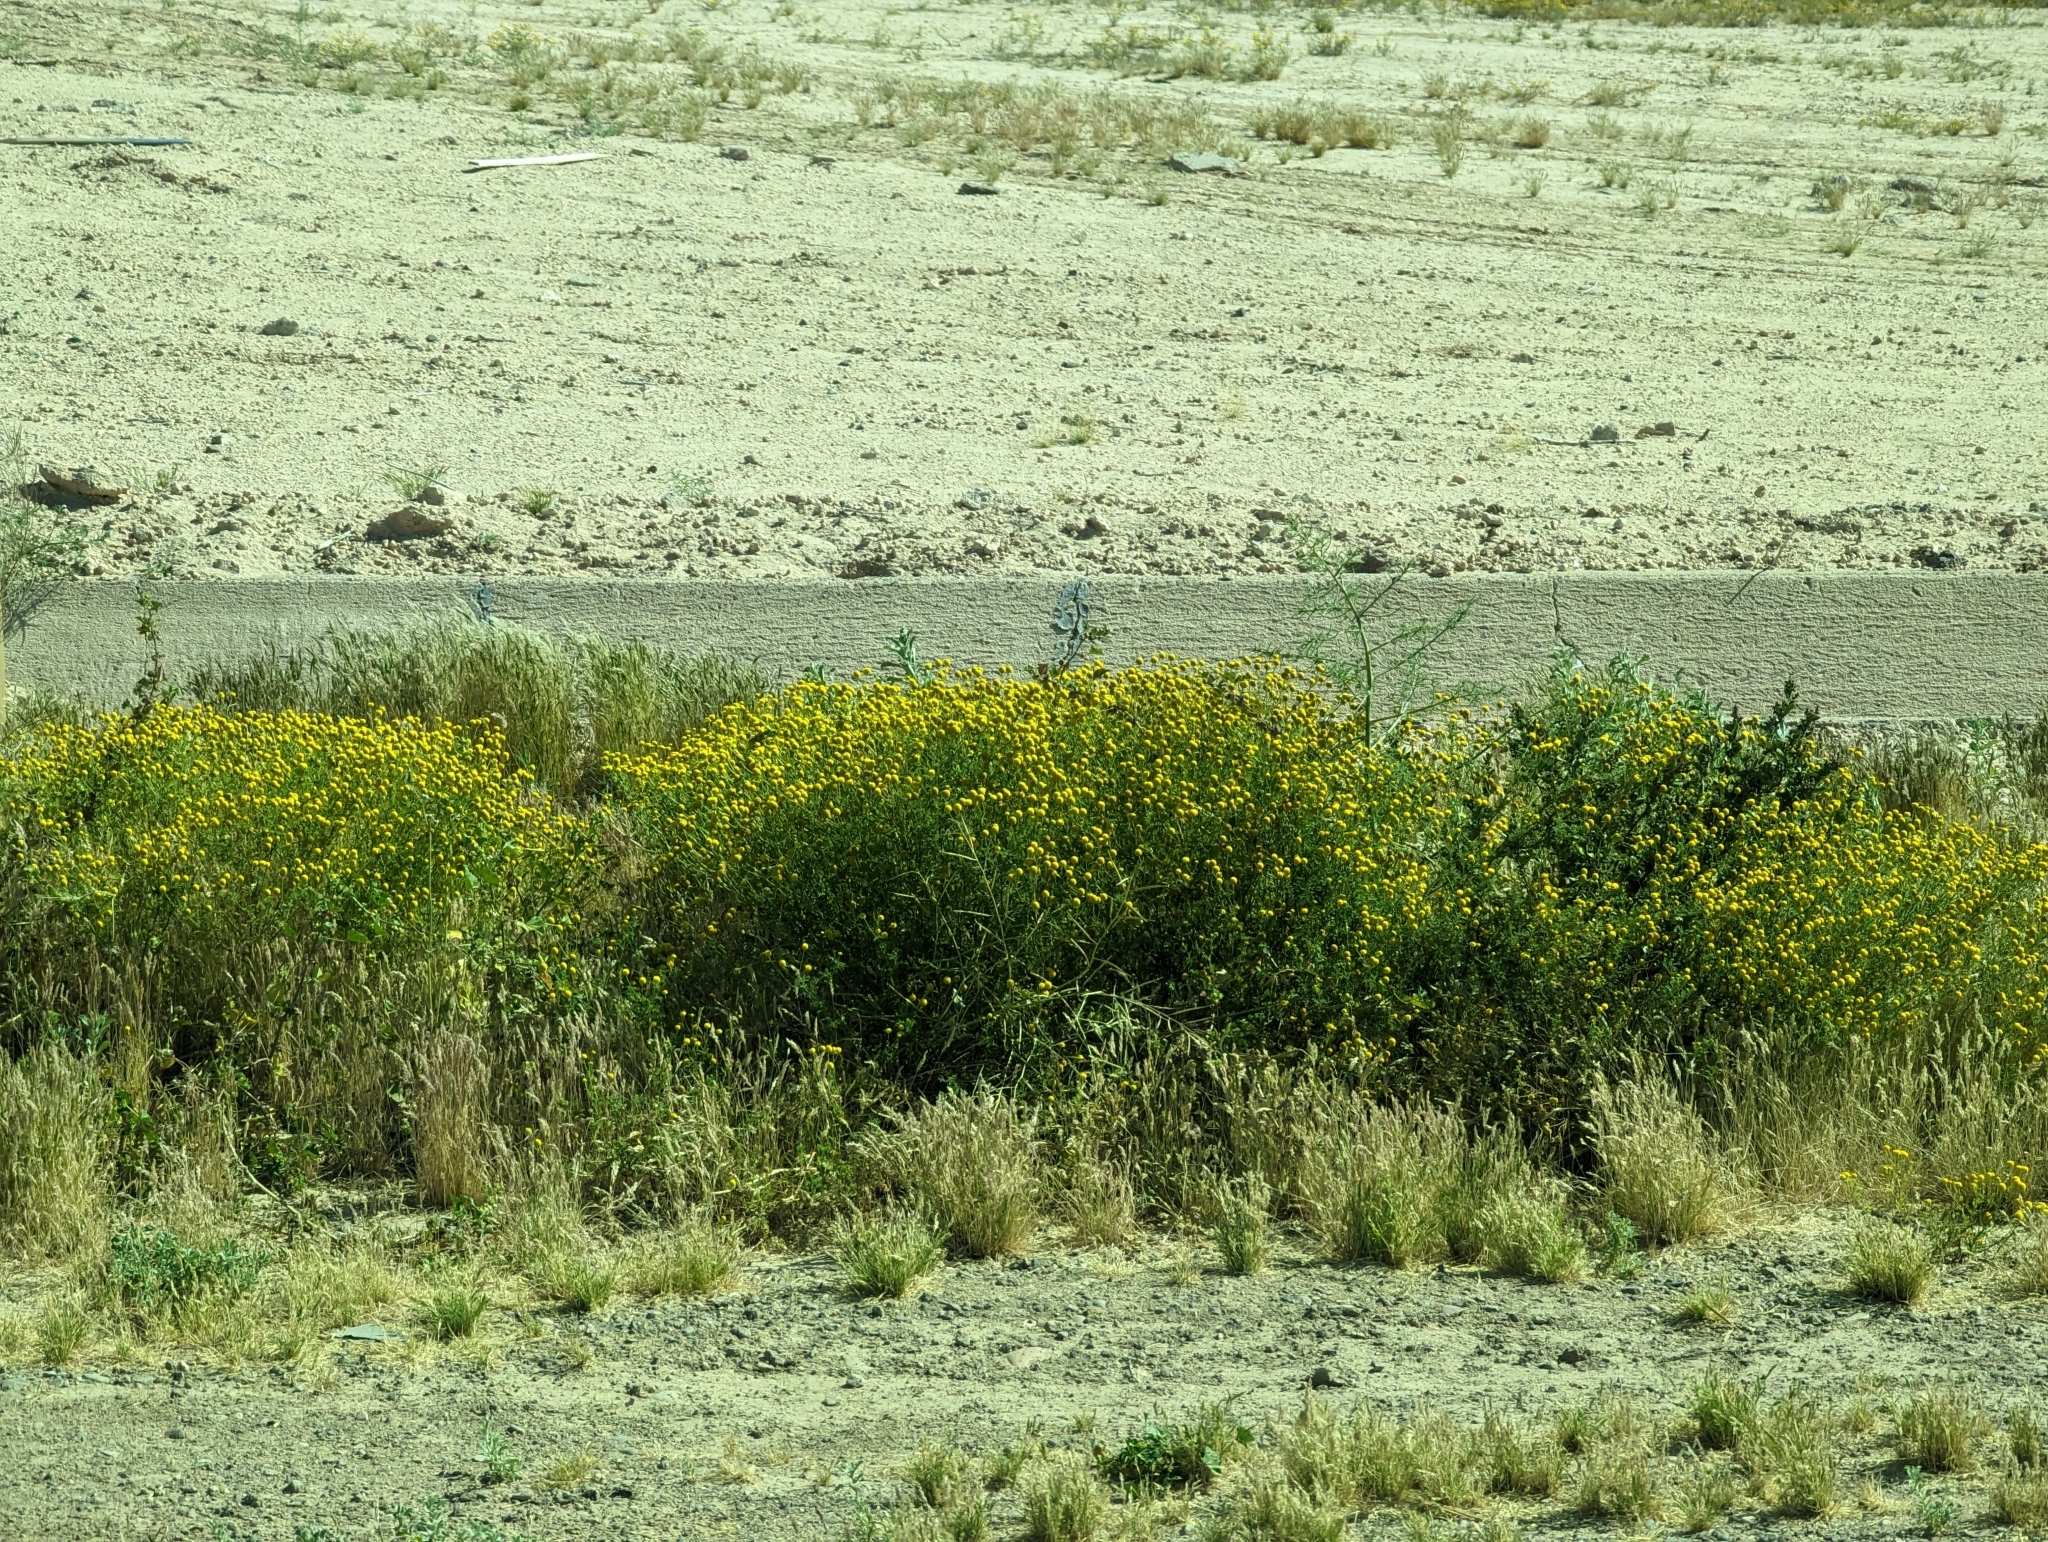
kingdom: Plantae
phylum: Tracheophyta
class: Magnoliopsida
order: Asterales
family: Asteraceae
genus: Oncosiphon
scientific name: Oncosiphon pilulifer
